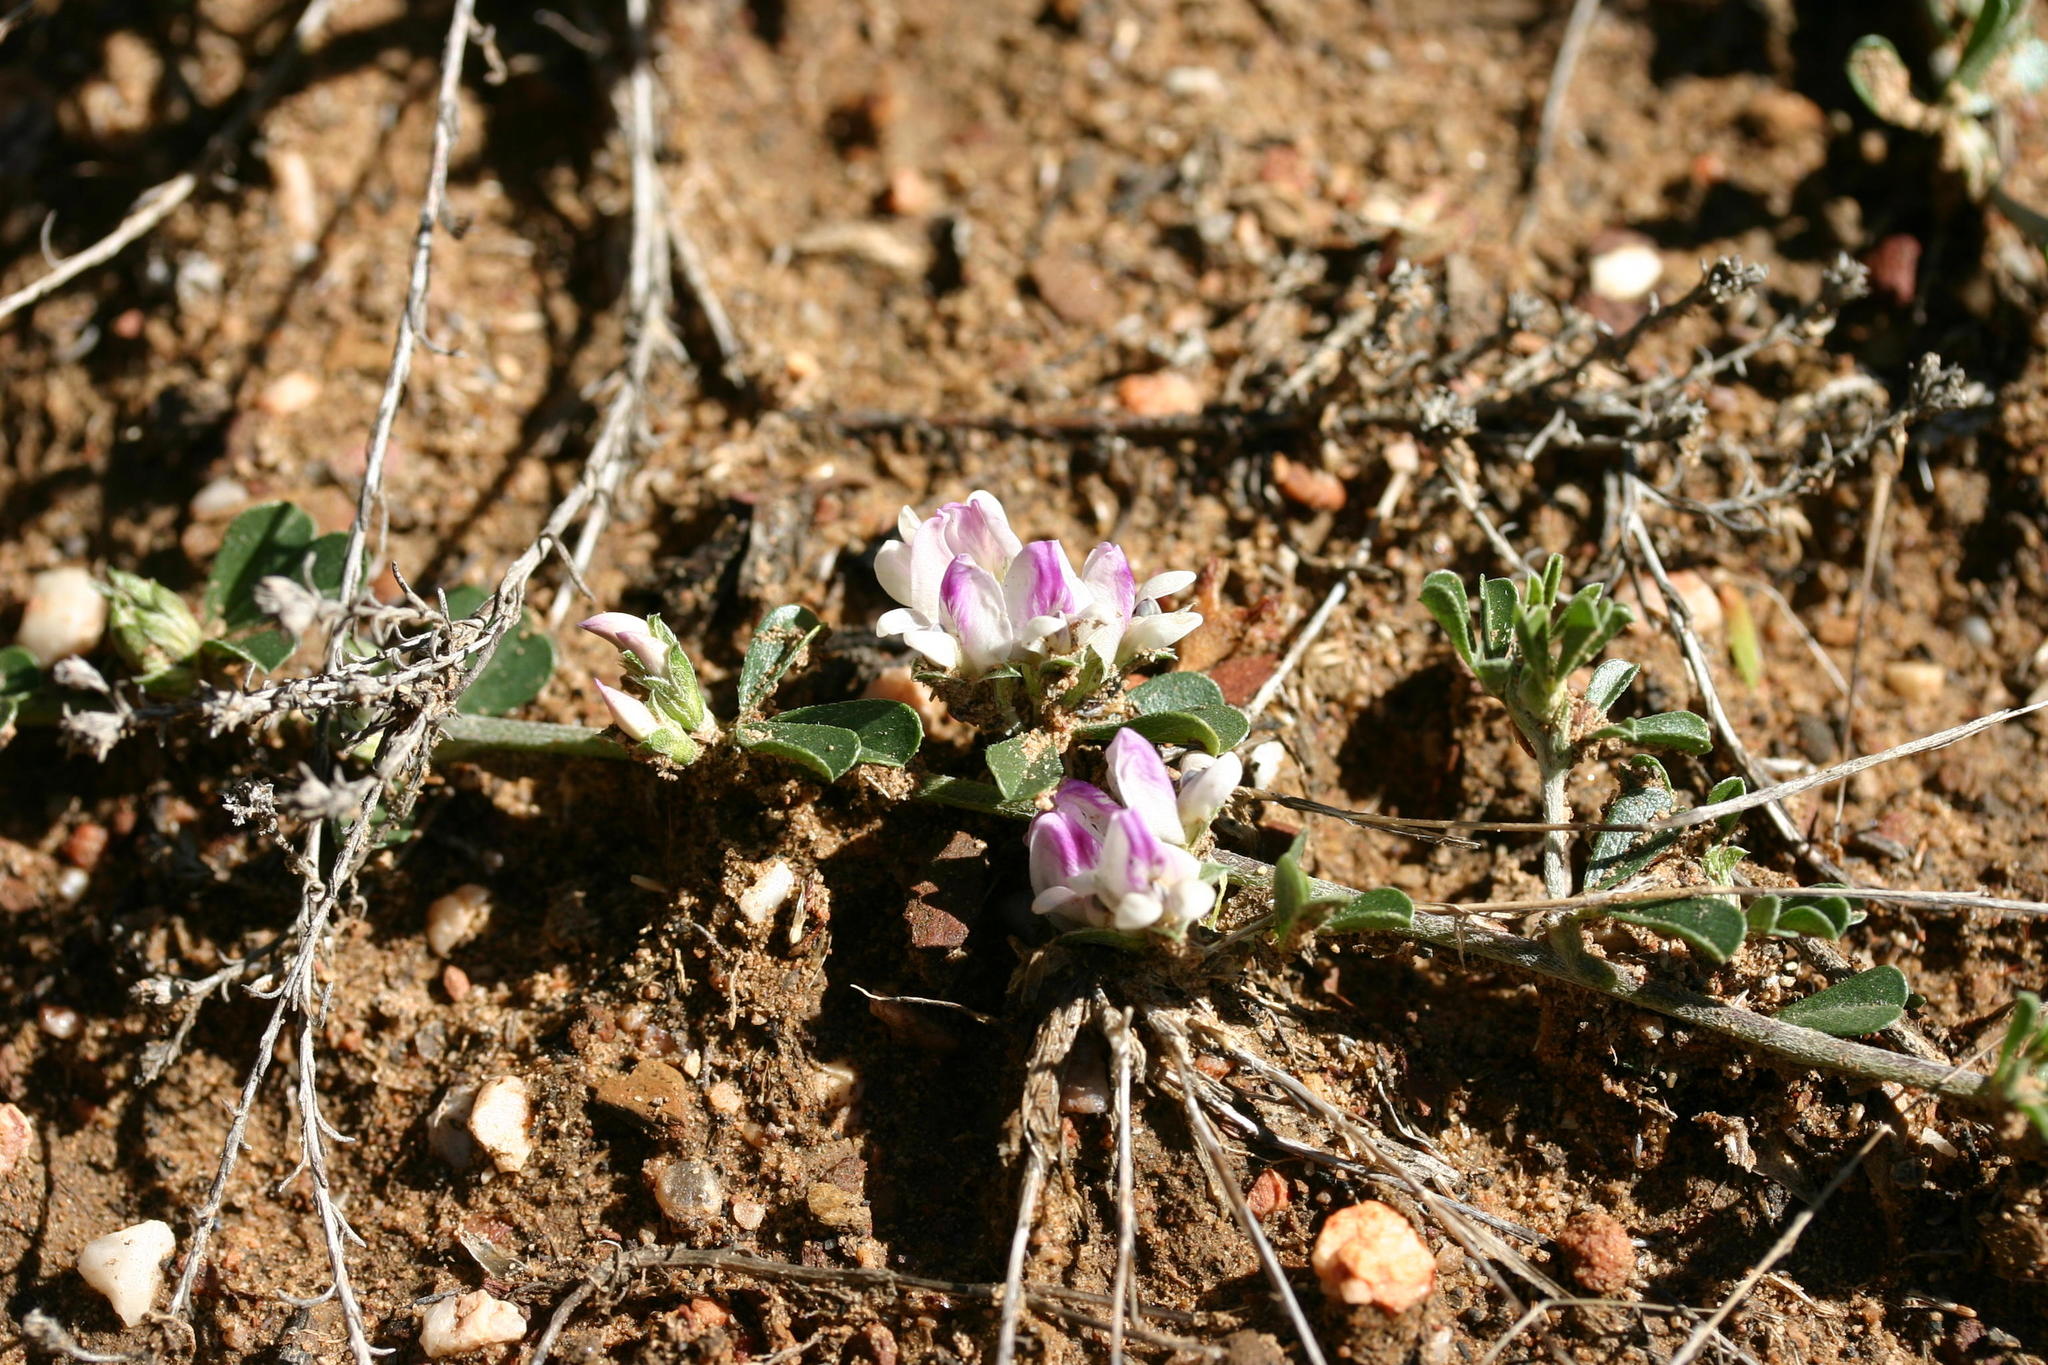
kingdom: Plantae
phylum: Tracheophyta
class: Magnoliopsida
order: Fabales
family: Fabaceae
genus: Psoralea
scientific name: Psoralea
